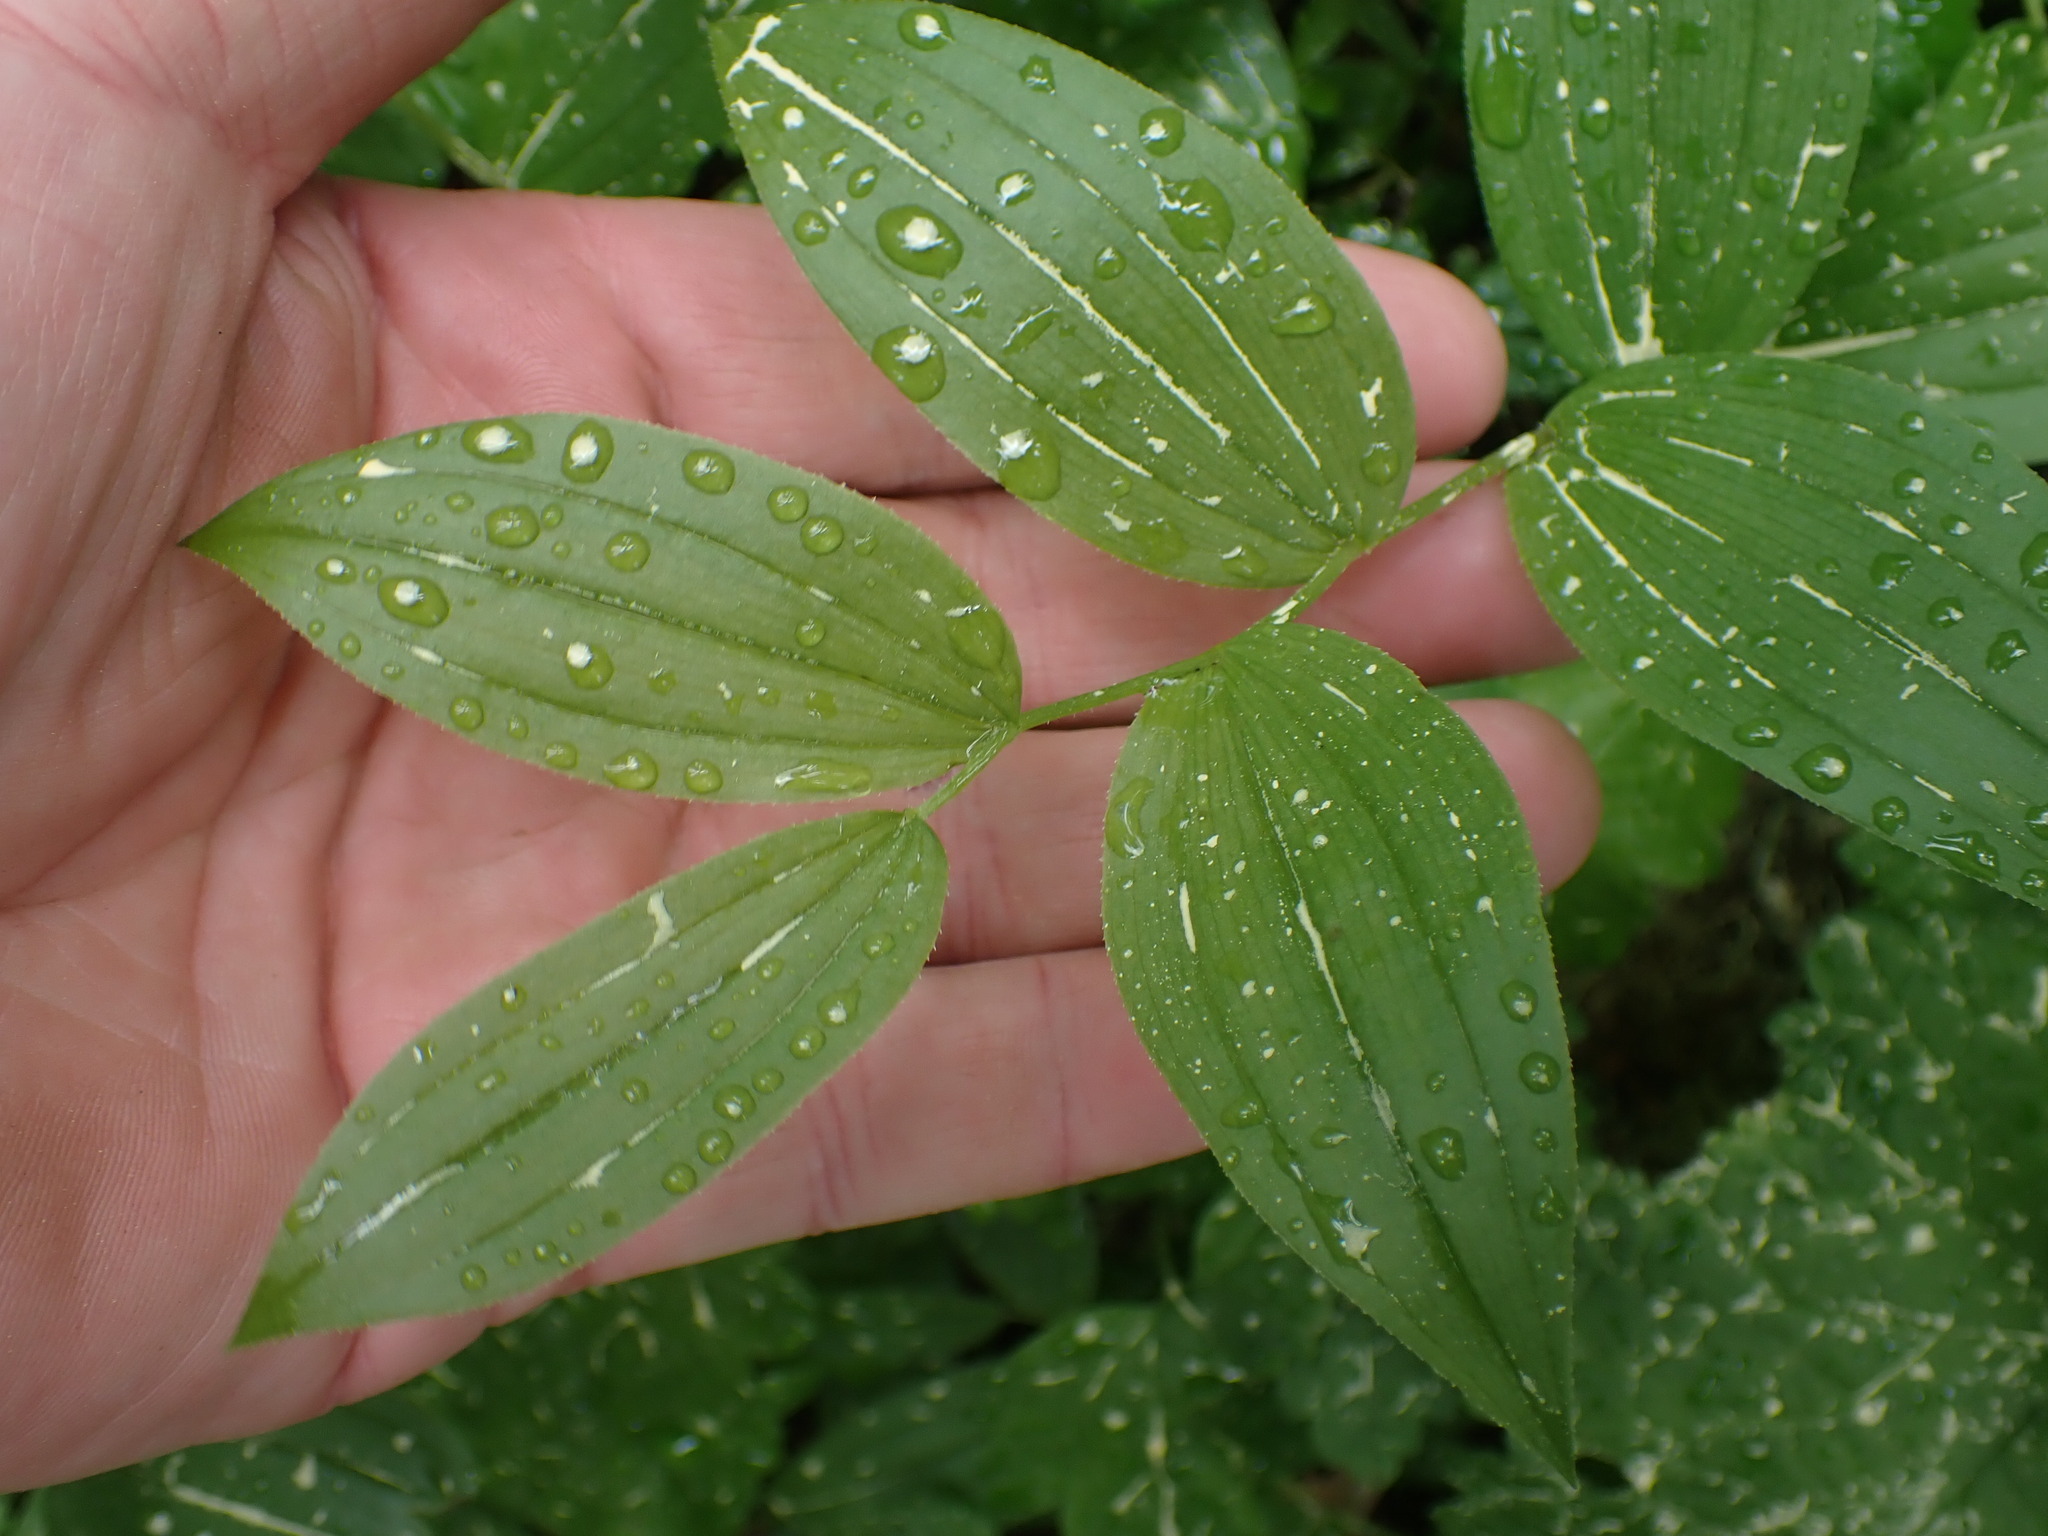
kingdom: Plantae
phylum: Tracheophyta
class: Liliopsida
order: Liliales
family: Liliaceae
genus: Streptopus
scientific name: Streptopus lanceolatus
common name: Rose mandarin
